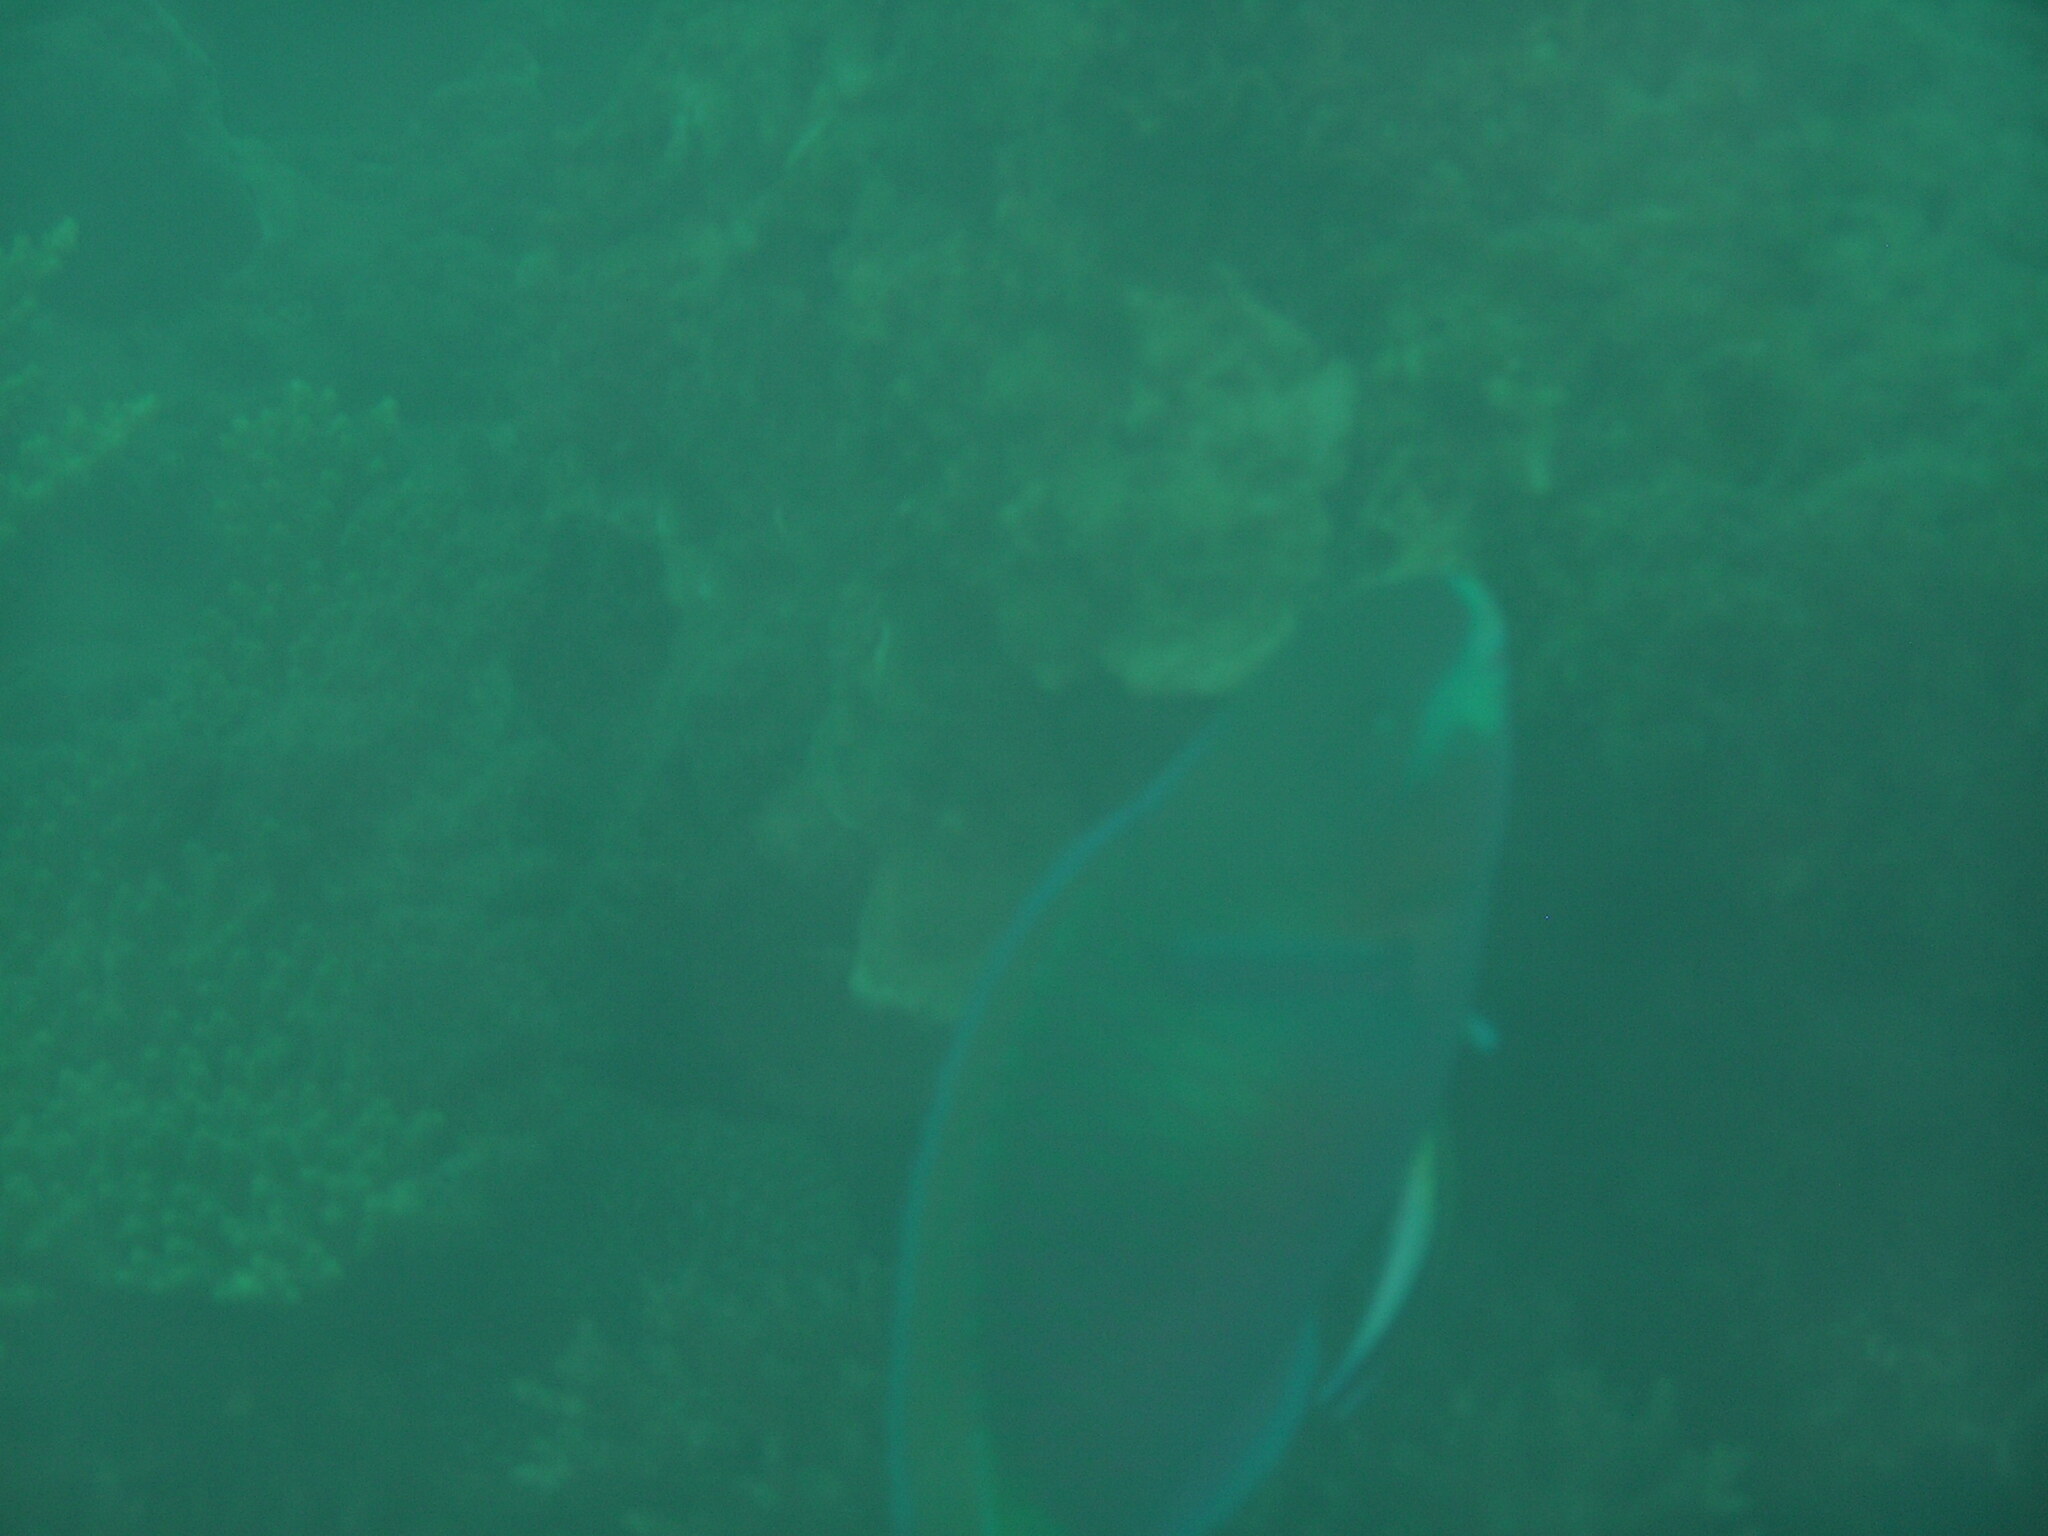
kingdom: Animalia
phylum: Chordata
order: Perciformes
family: Scaridae
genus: Scarus
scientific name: Scarus quoyi
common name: Quoy's parrotfish
